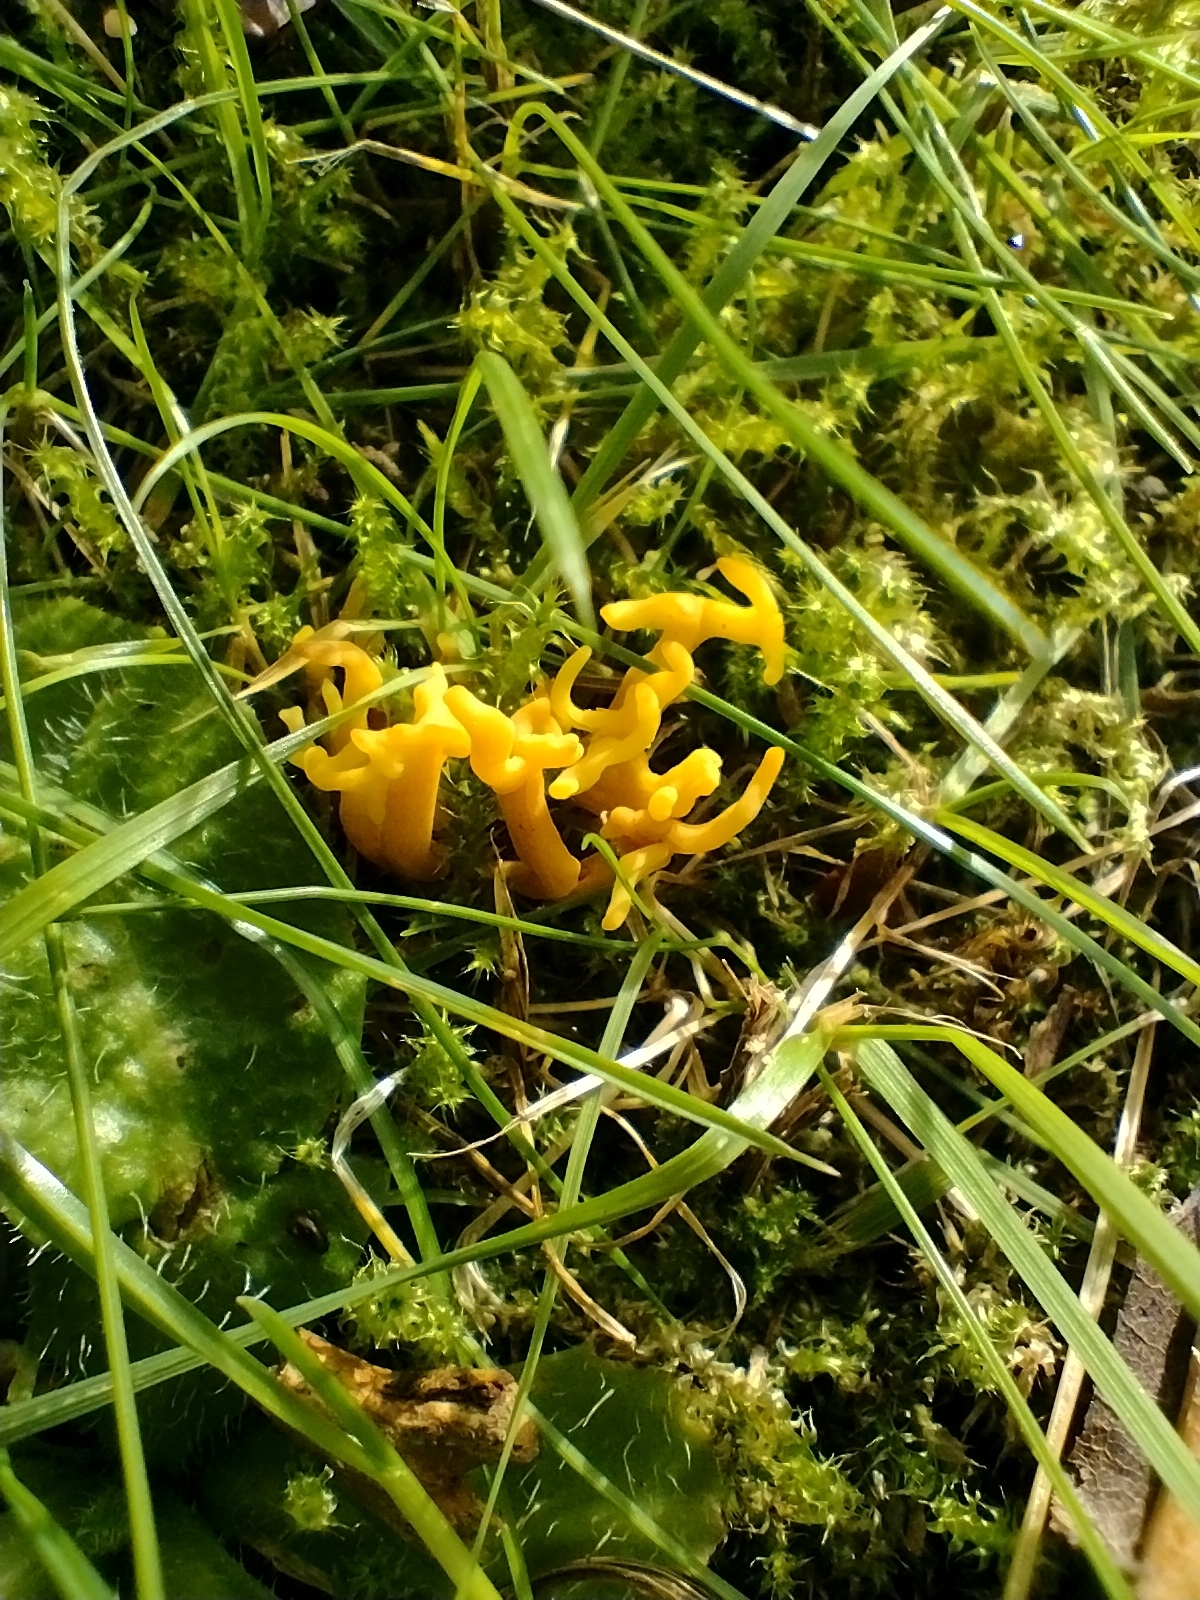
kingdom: Fungi
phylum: Basidiomycota
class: Agaricomycetes
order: Agaricales
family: Clavariaceae
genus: Clavulinopsis
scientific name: Clavulinopsis corniculata
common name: Meadow coral
